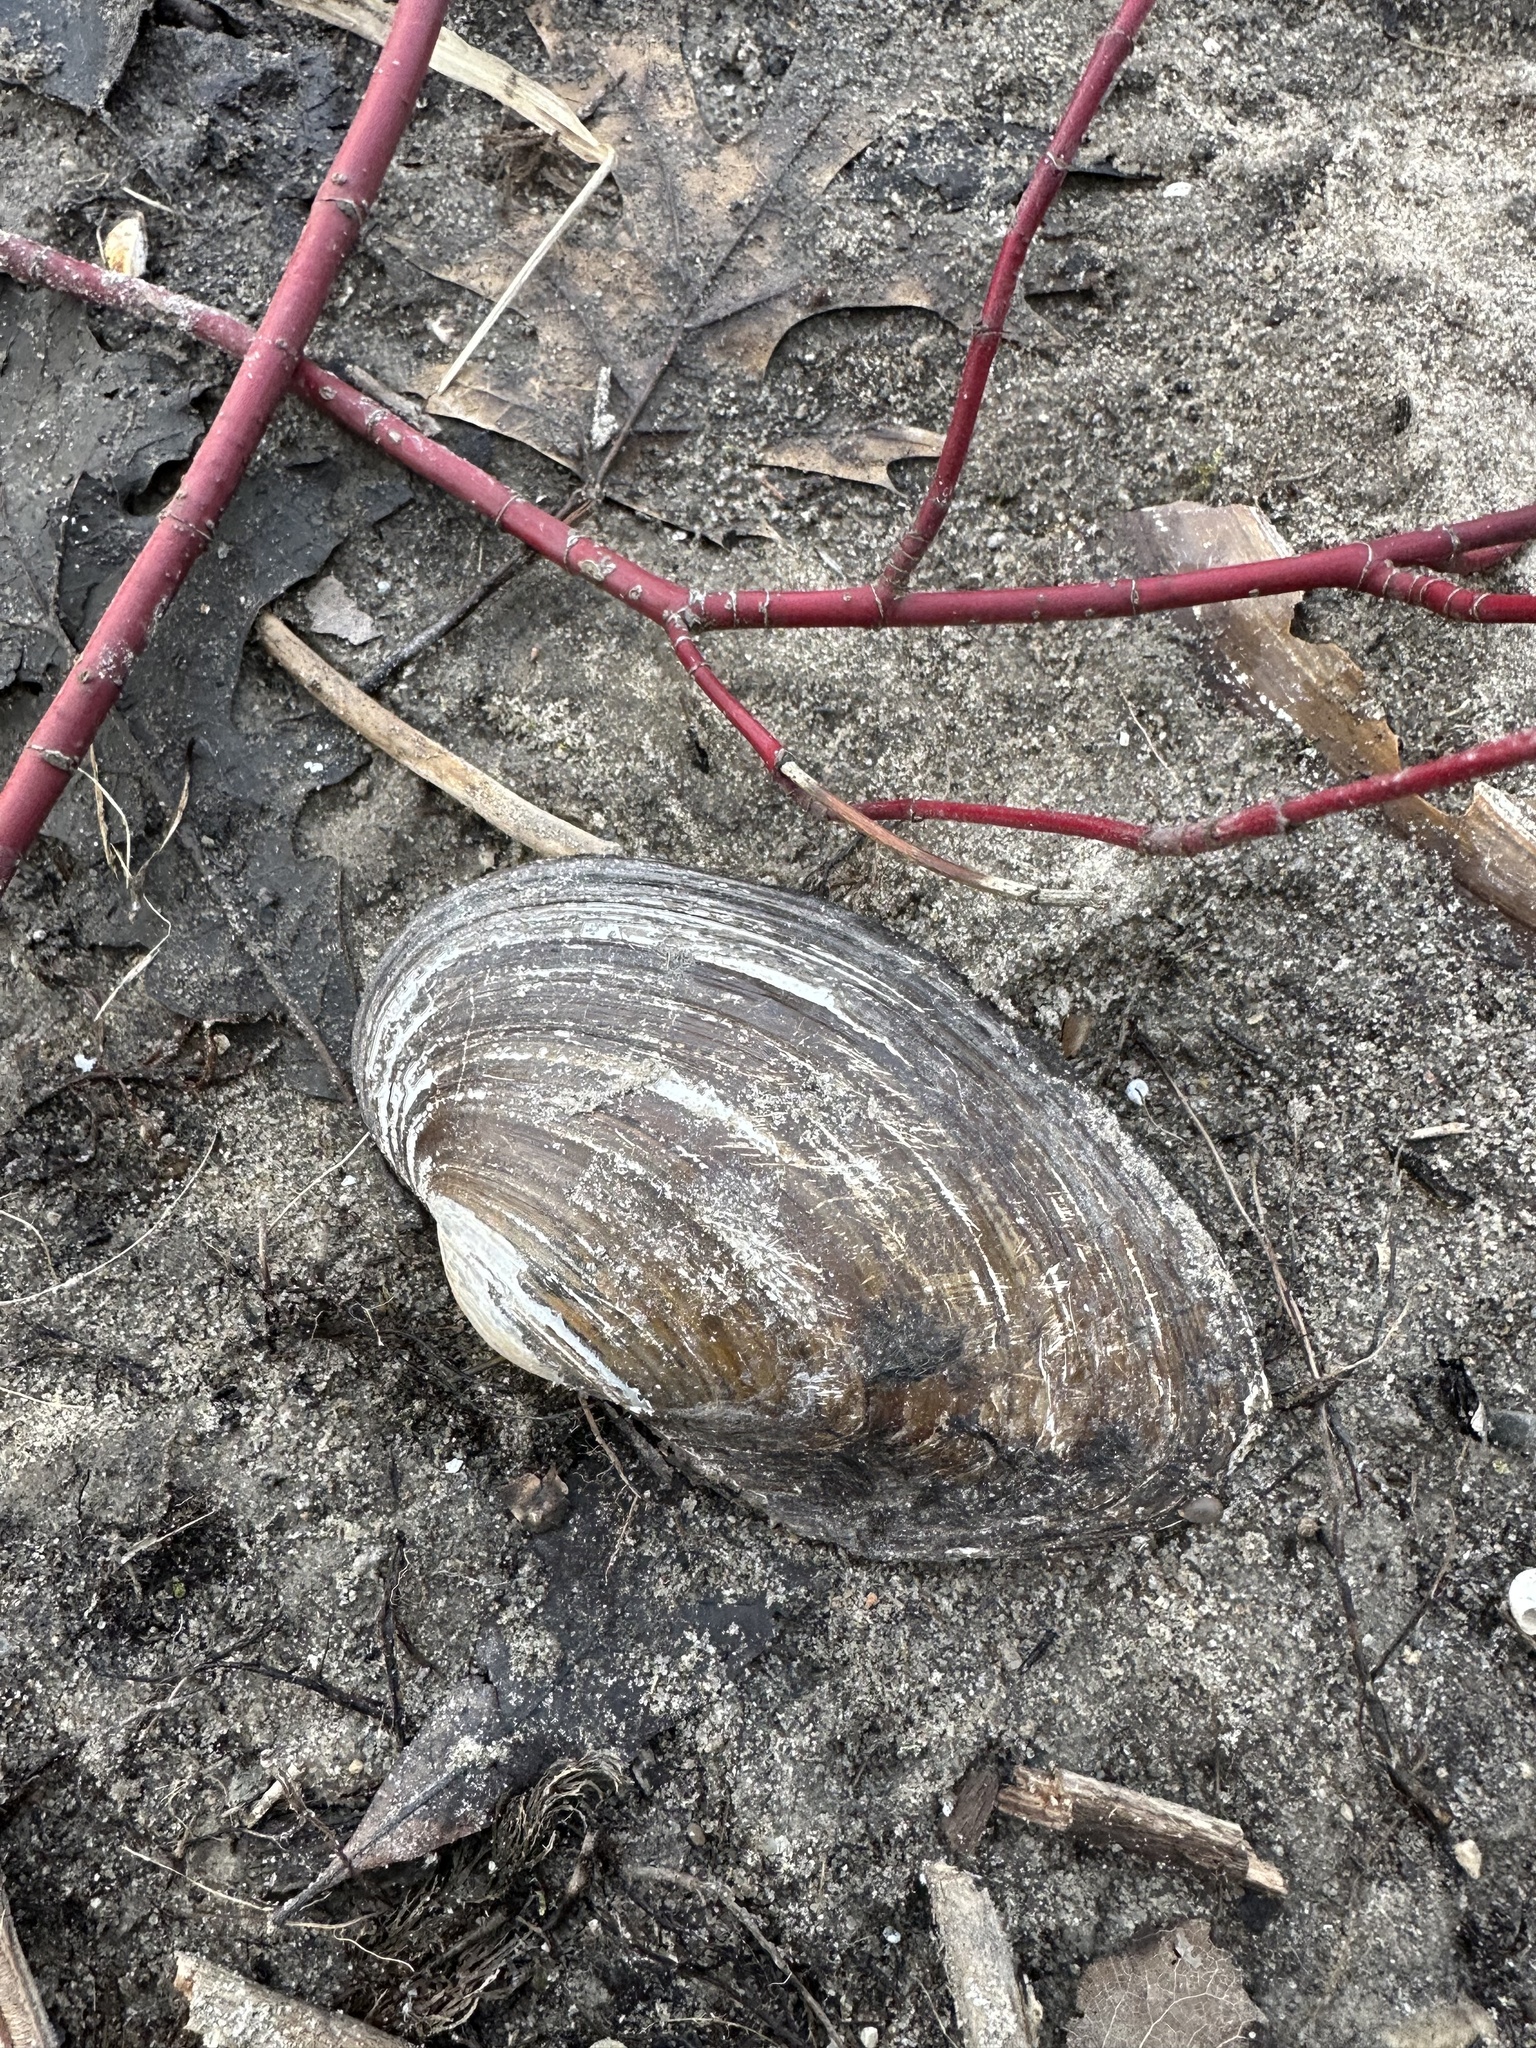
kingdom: Animalia
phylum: Mollusca
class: Bivalvia
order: Unionida
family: Unionidae
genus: Pyganodon
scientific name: Pyganodon grandis
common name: Giant floater
